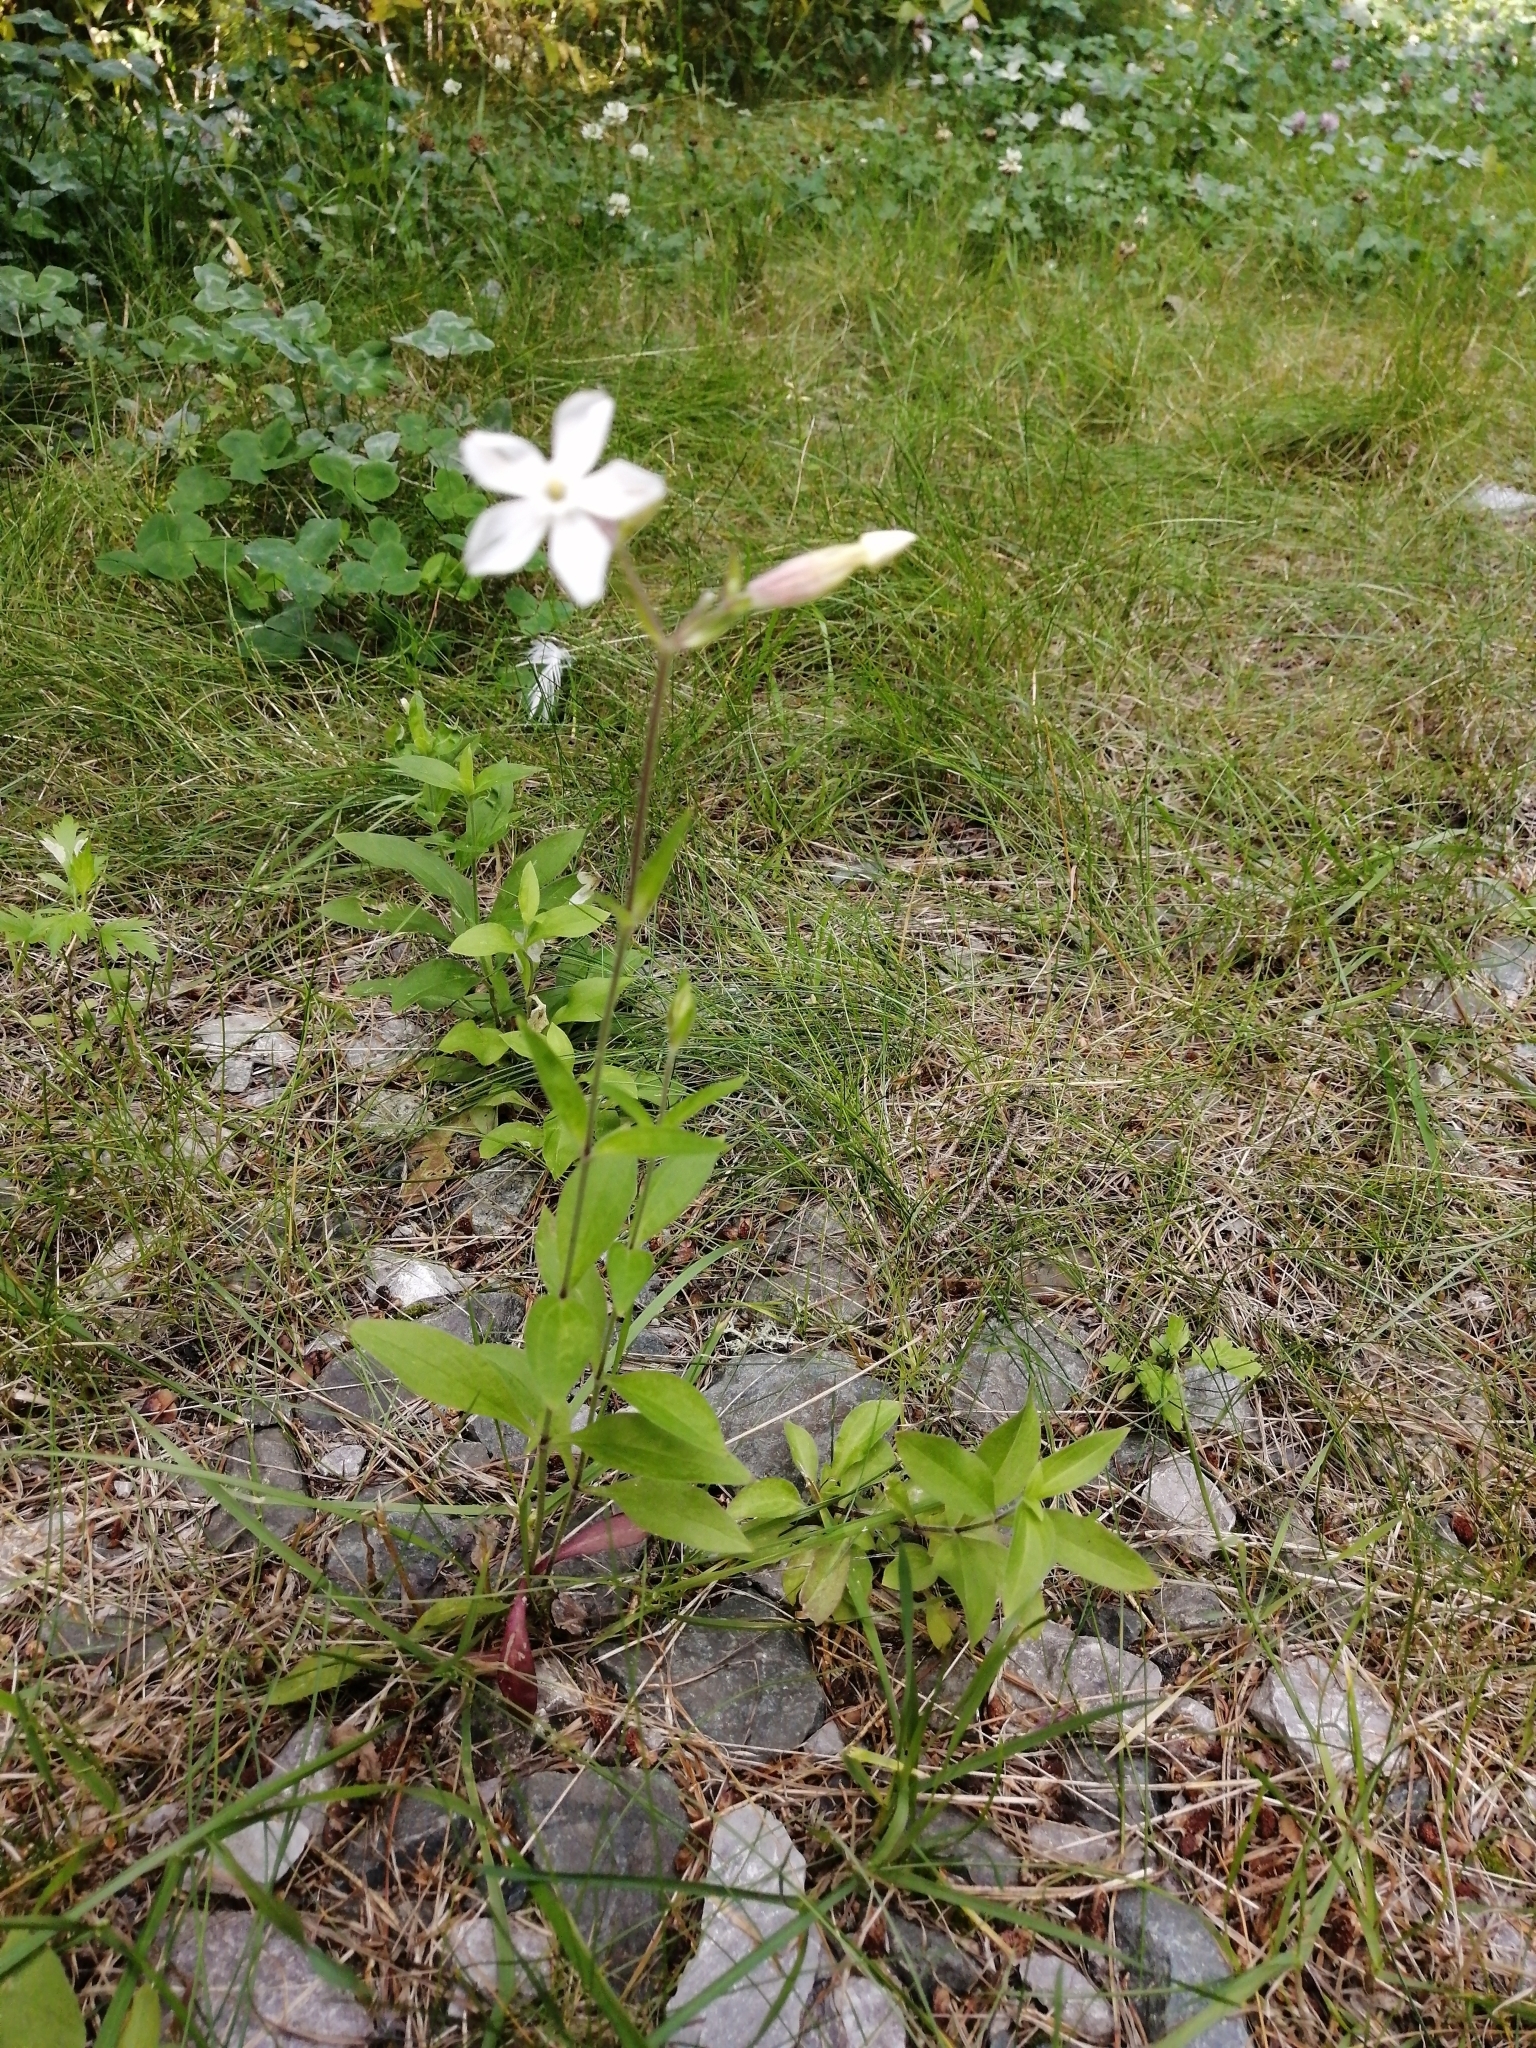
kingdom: Plantae
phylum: Tracheophyta
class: Magnoliopsida
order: Caryophyllales
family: Caryophyllaceae
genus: Silene
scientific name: Silene latifolia
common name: White campion
